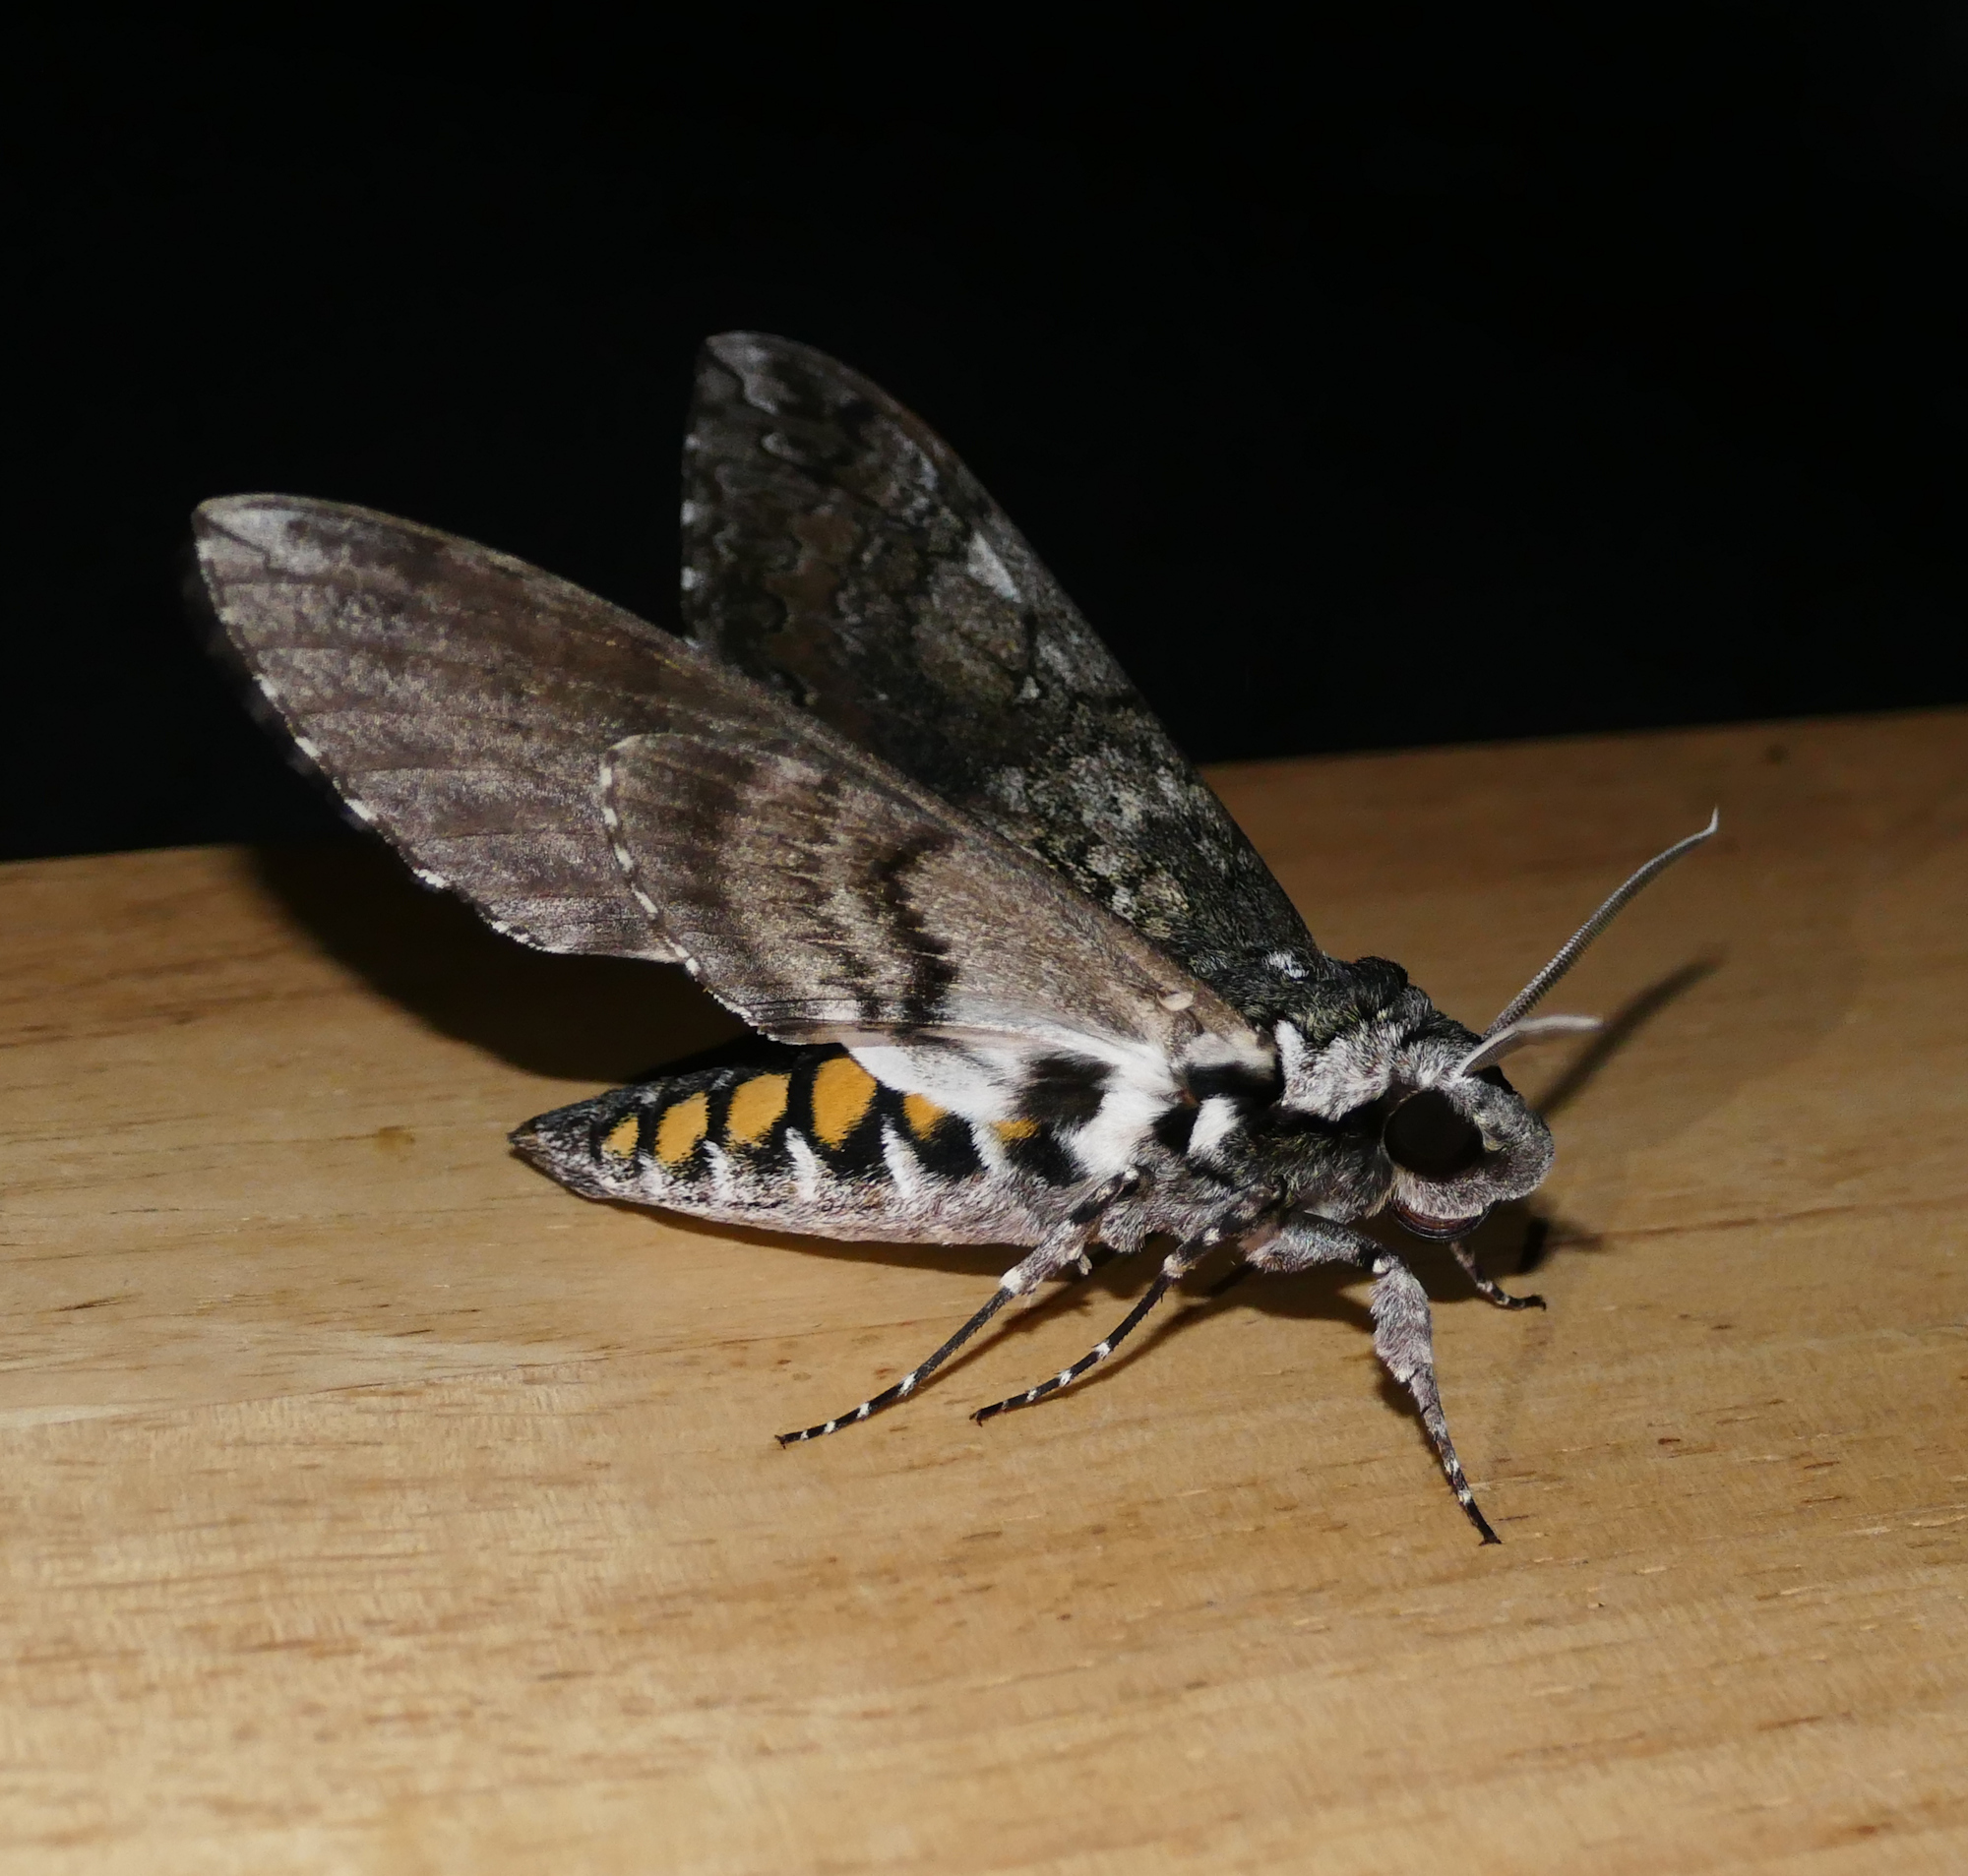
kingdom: Animalia
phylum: Arthropoda
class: Insecta
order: Lepidoptera
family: Sphingidae
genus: Manduca
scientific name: Manduca sexta
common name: Carolina sphinx
